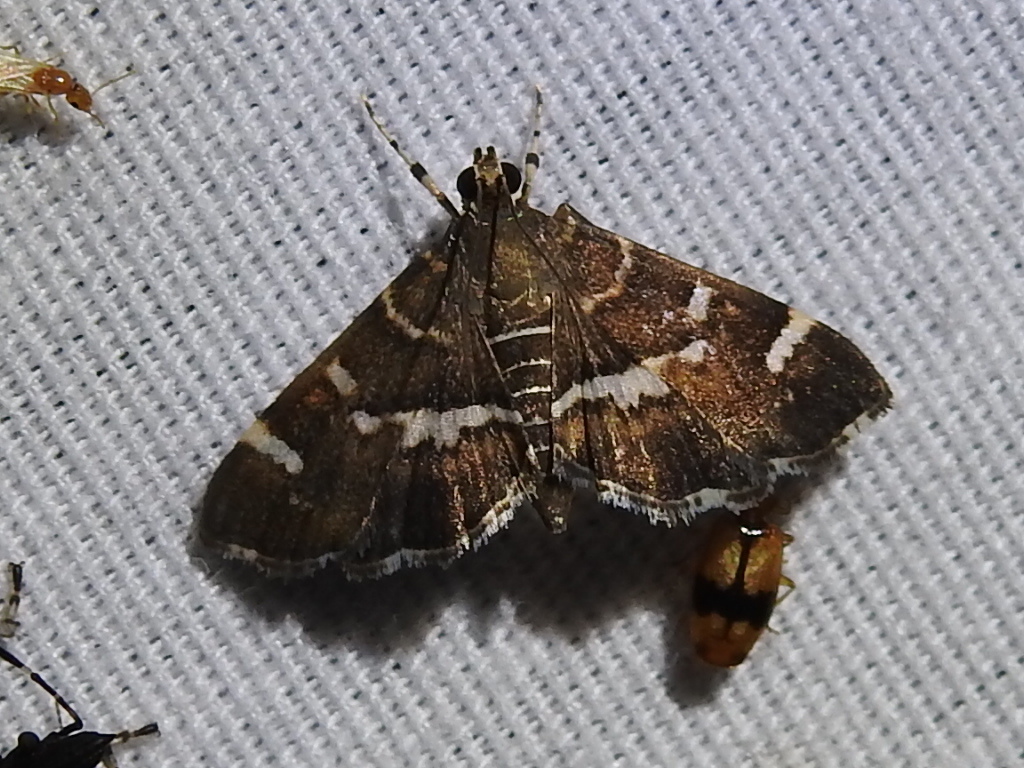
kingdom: Animalia
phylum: Arthropoda
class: Insecta
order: Lepidoptera
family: Crambidae
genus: Hymenia
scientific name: Hymenia perspectalis
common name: Spotted beet webworm
